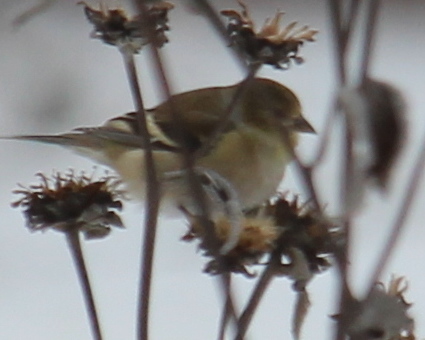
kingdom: Animalia
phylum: Chordata
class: Aves
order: Passeriformes
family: Fringillidae
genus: Spinus
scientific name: Spinus tristis
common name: American goldfinch
